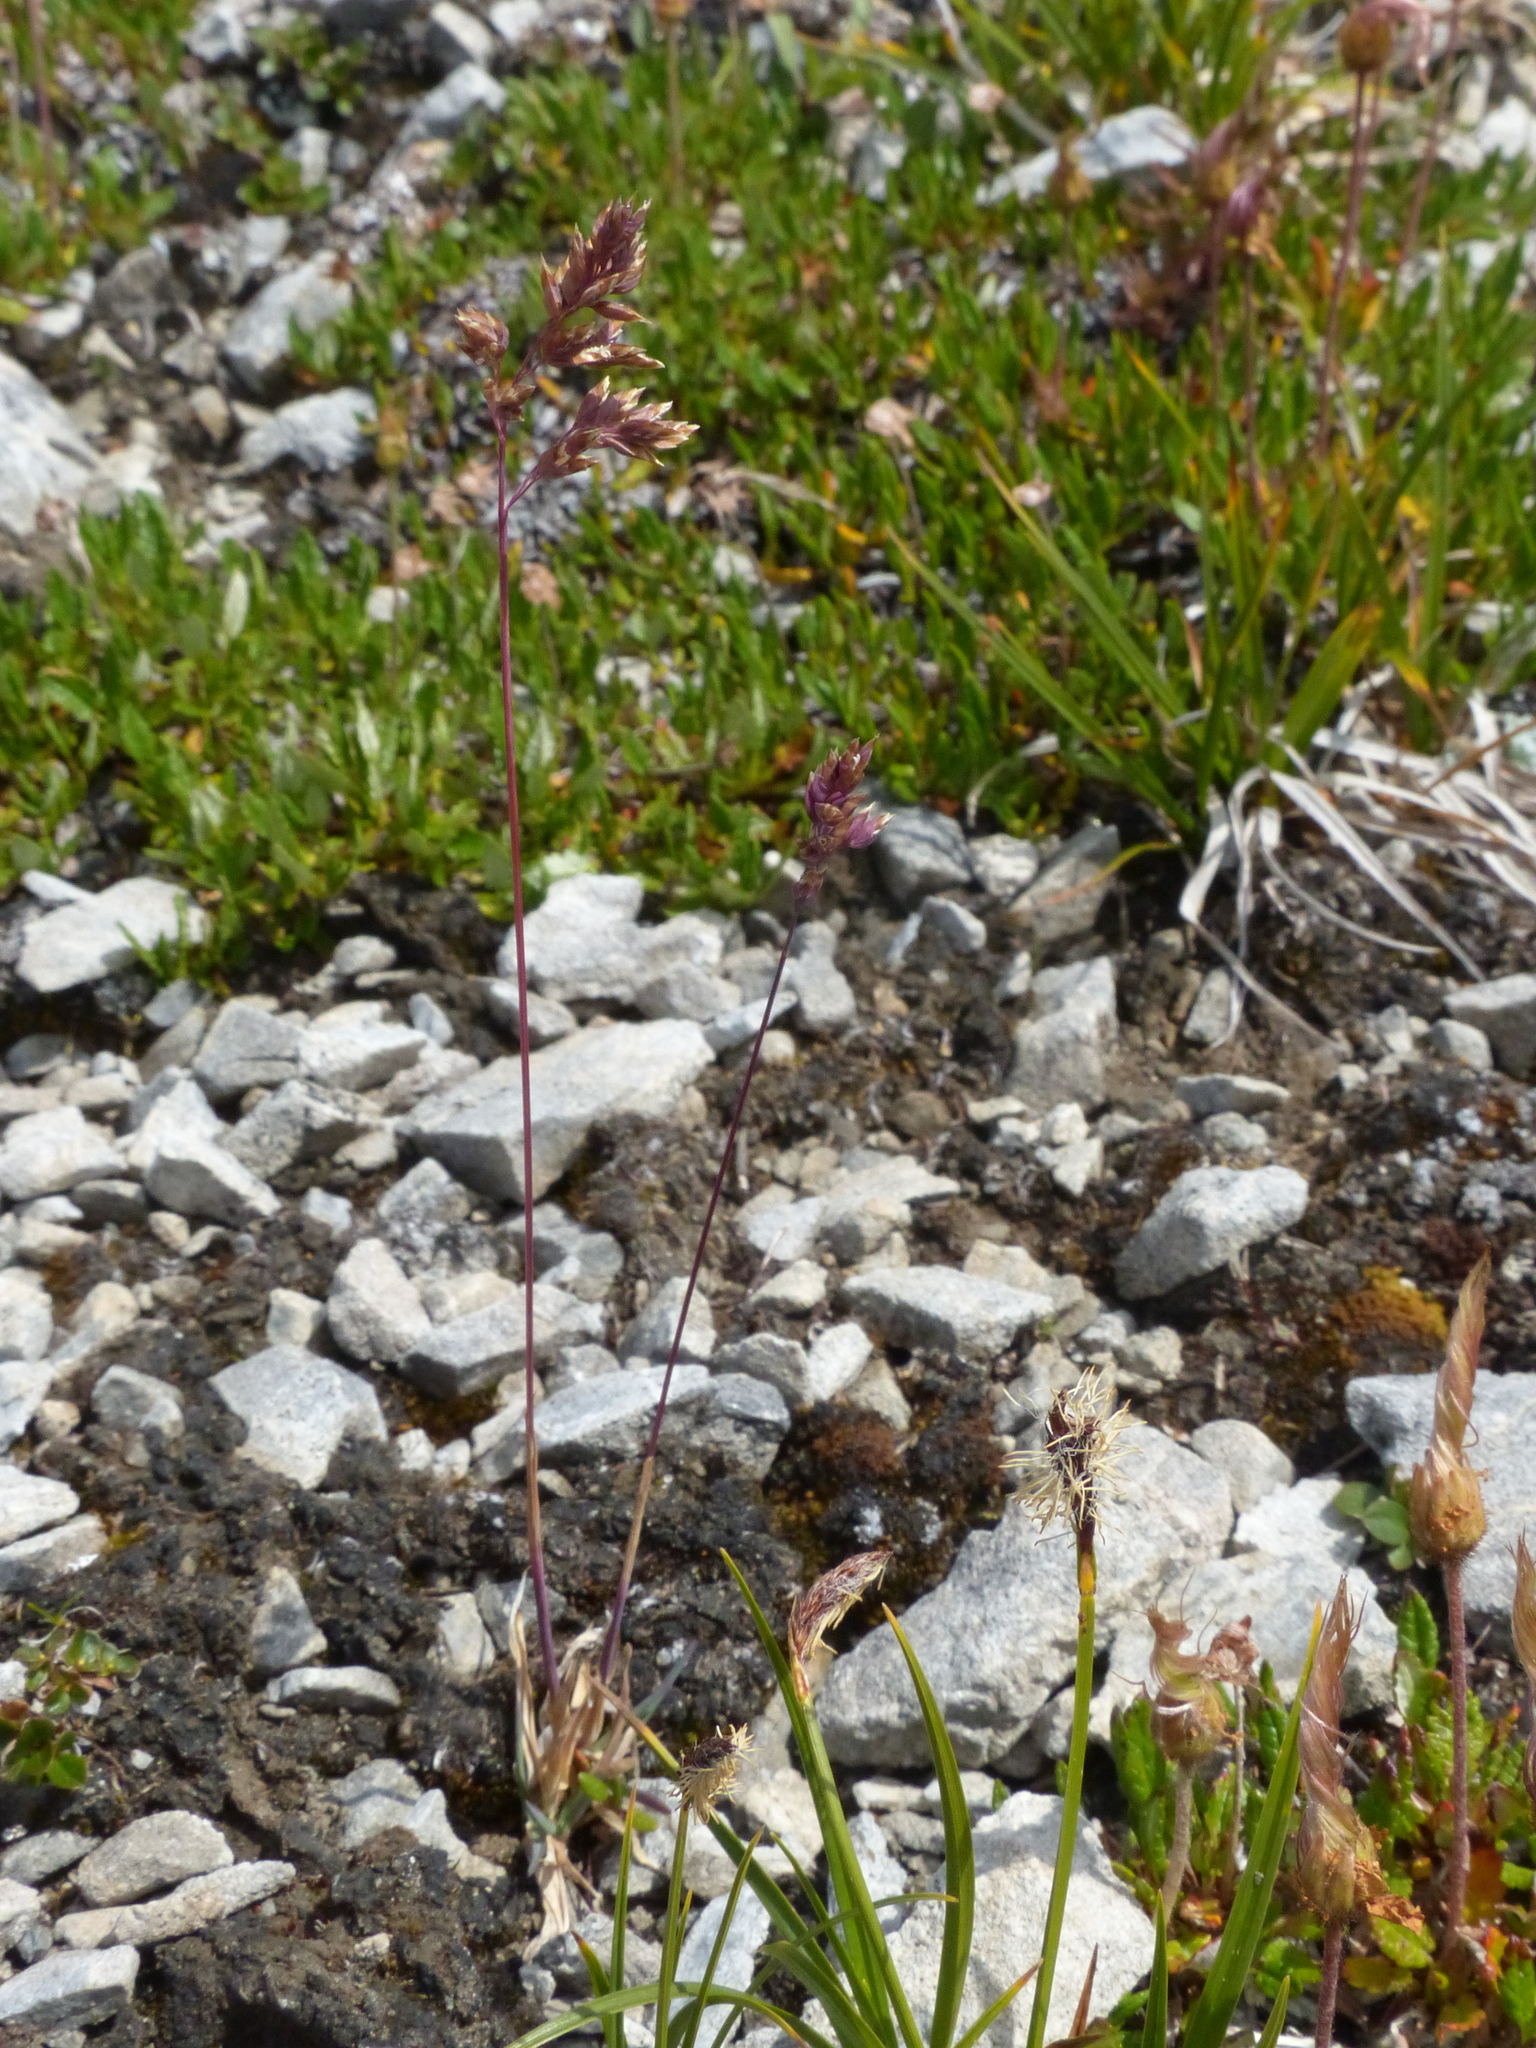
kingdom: Plantae
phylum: Tracheophyta
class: Liliopsida
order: Poales
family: Poaceae
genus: Poa
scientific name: Poa alpina
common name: Alpine bluegrass
